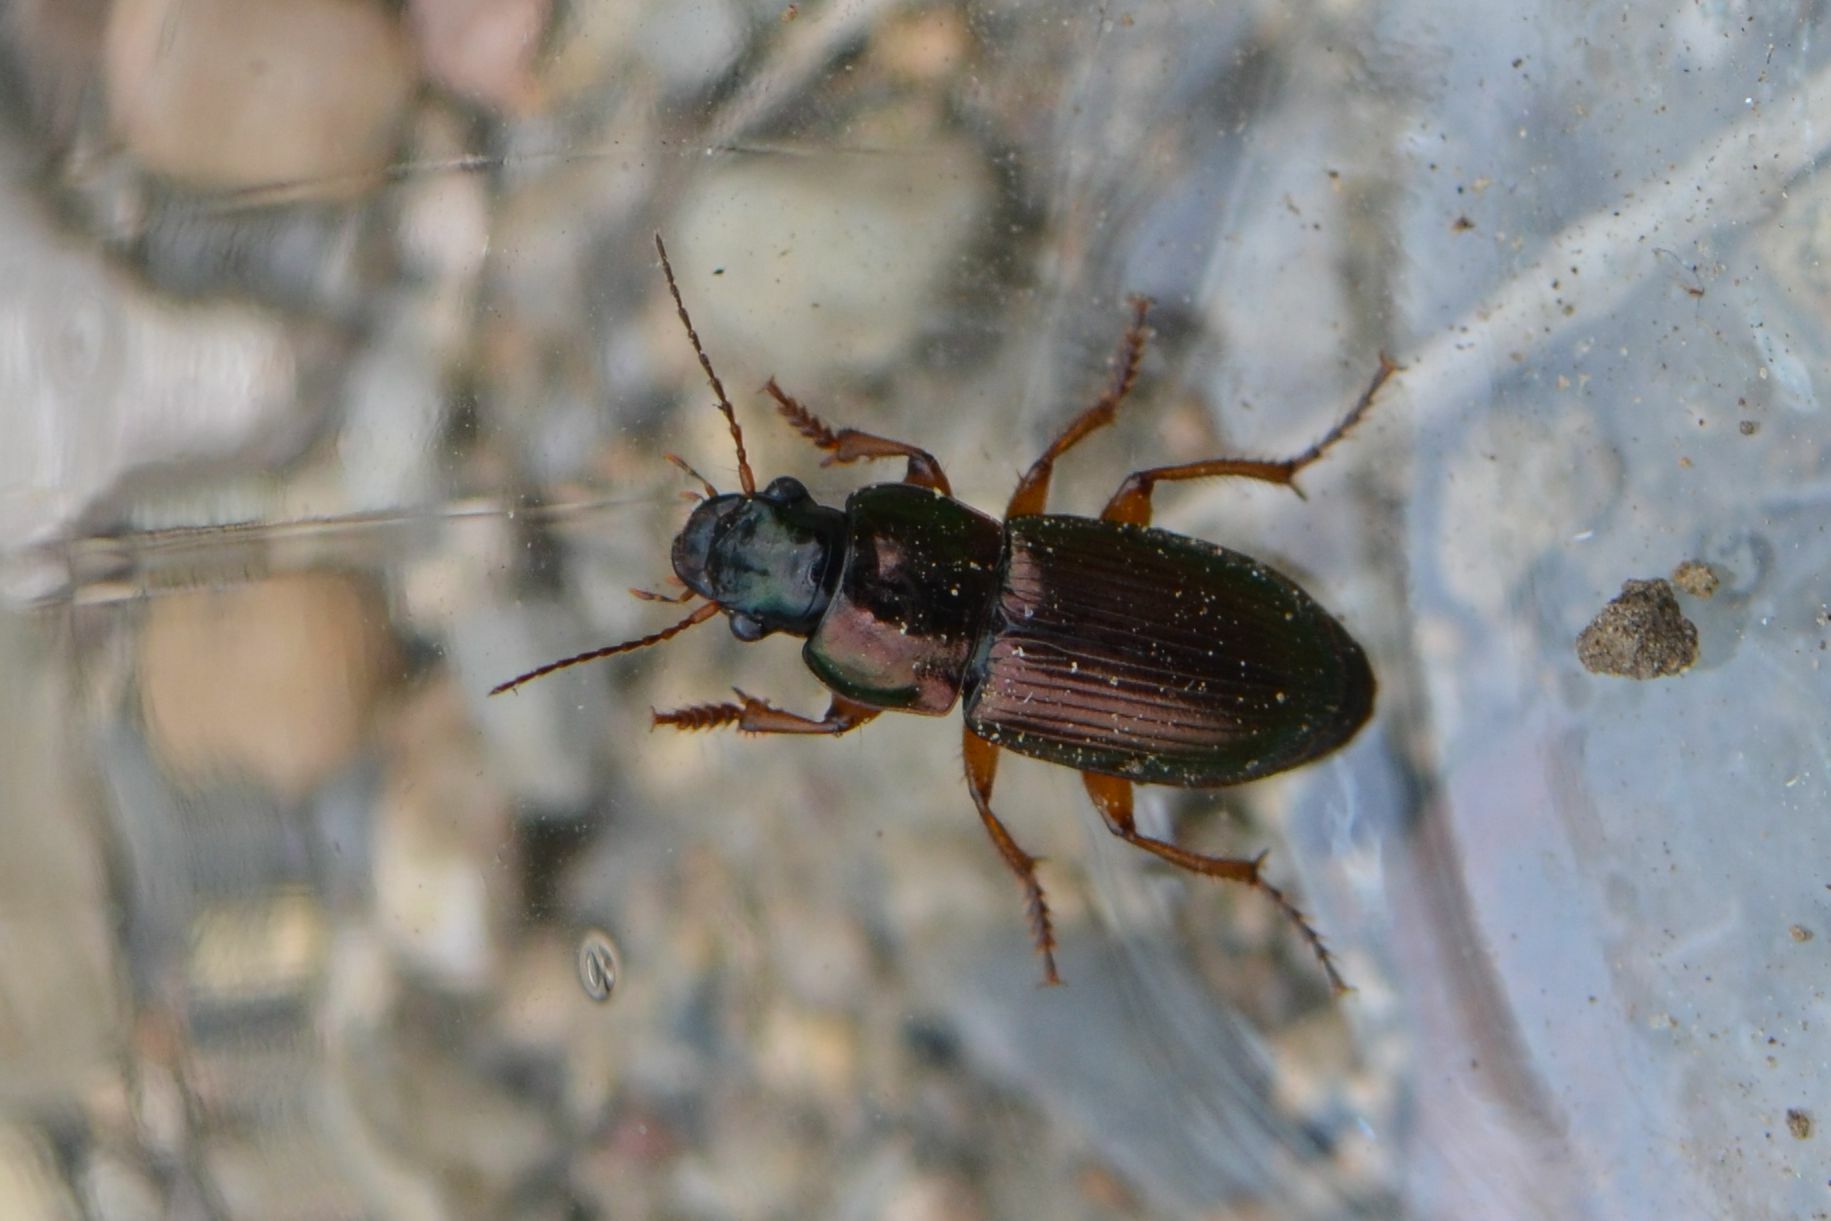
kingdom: Animalia
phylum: Arthropoda
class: Insecta
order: Coleoptera
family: Carabidae
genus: Harpalus
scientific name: Harpalus affinis
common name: Polychrome harp ground beetle
